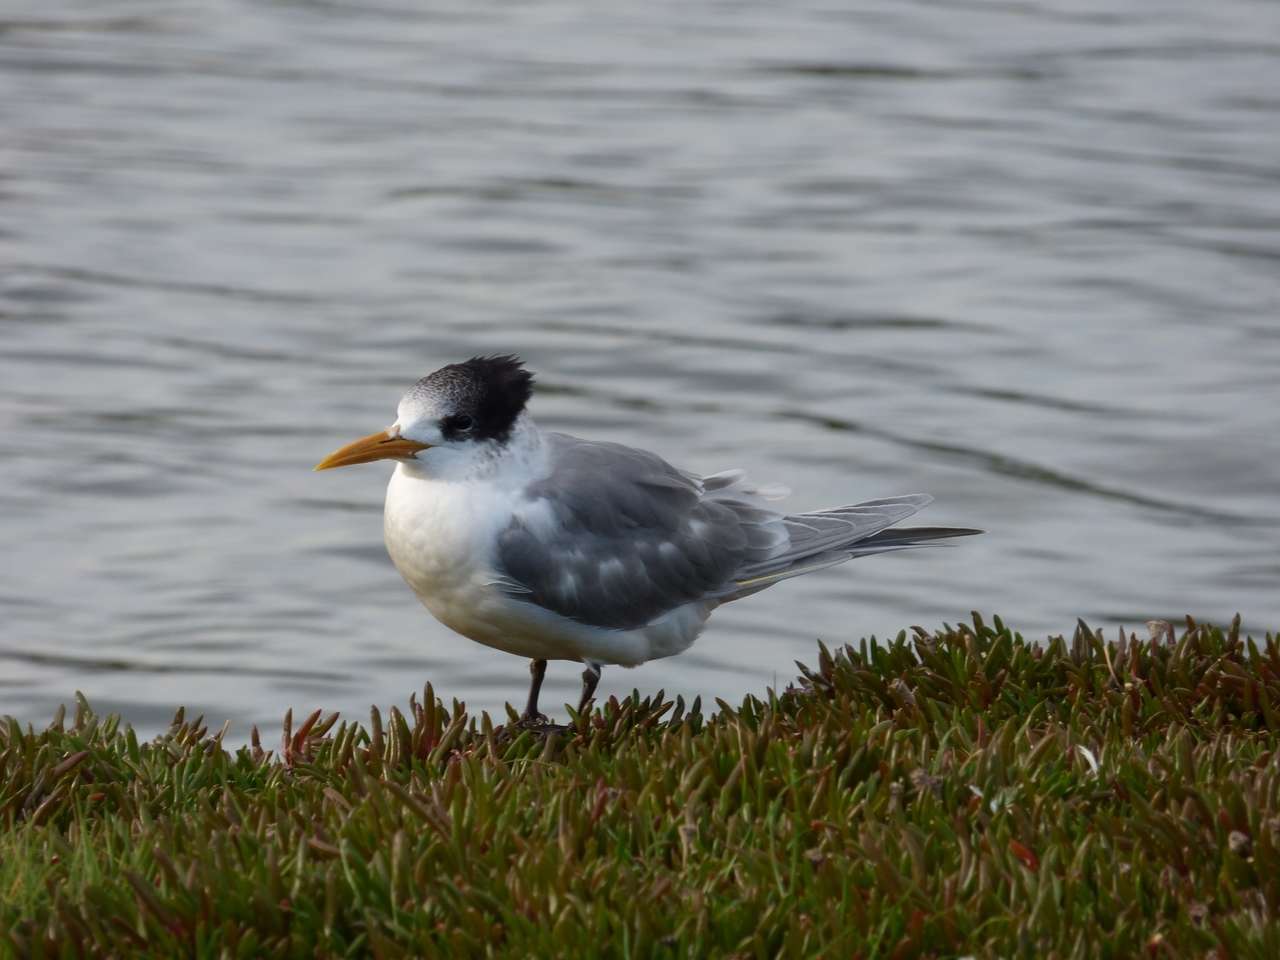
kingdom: Animalia
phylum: Chordata
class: Aves
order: Charadriiformes
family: Laridae
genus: Thalasseus
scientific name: Thalasseus bergii
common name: Greater crested tern
